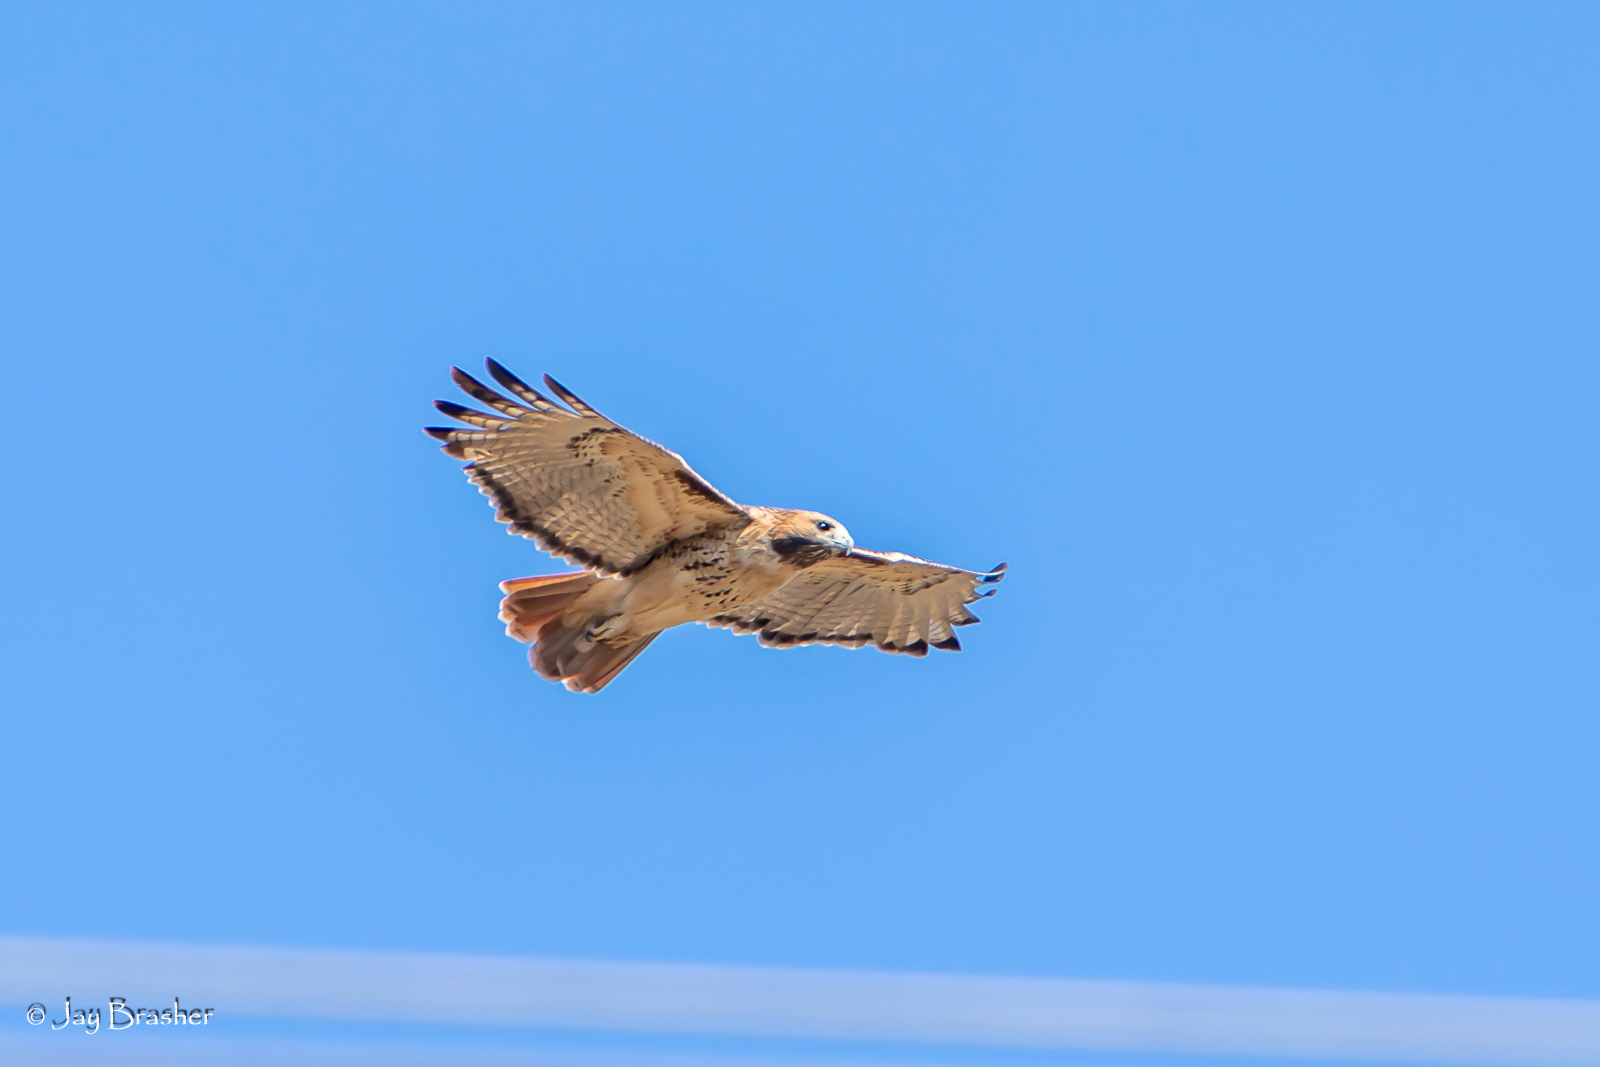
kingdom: Animalia
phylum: Chordata
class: Aves
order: Accipitriformes
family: Accipitridae
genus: Buteo
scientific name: Buteo jamaicensis
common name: Red-tailed hawk
